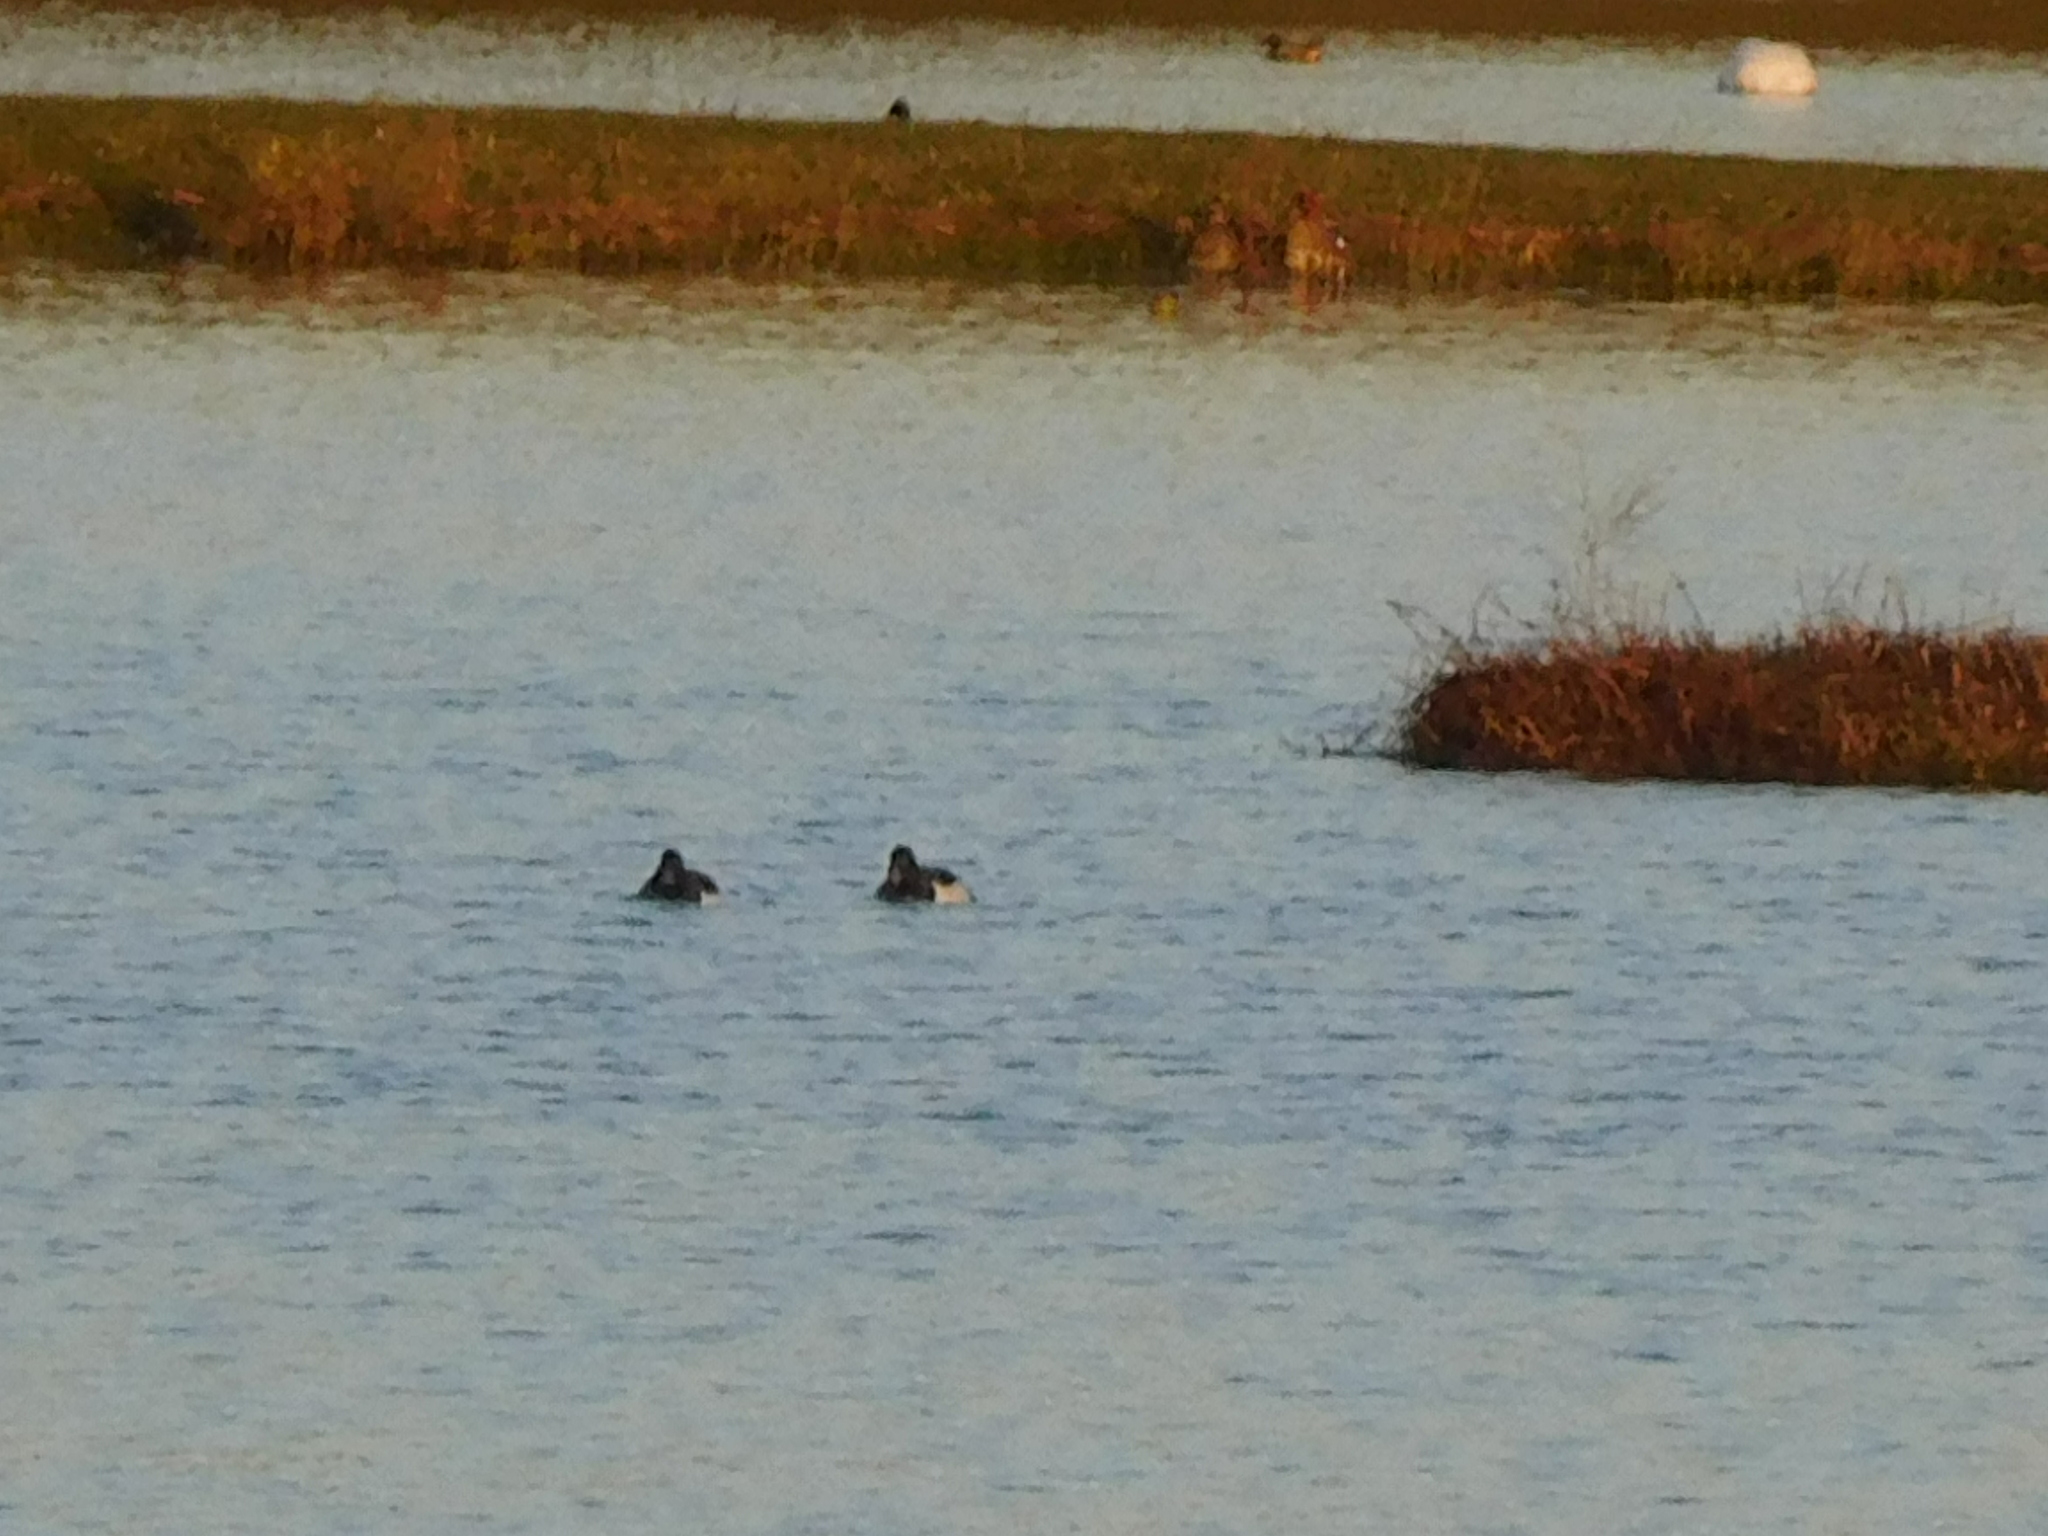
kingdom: Animalia
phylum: Chordata
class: Aves
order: Anseriformes
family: Anatidae
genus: Aythya
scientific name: Aythya fuligula
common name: Tufted duck
